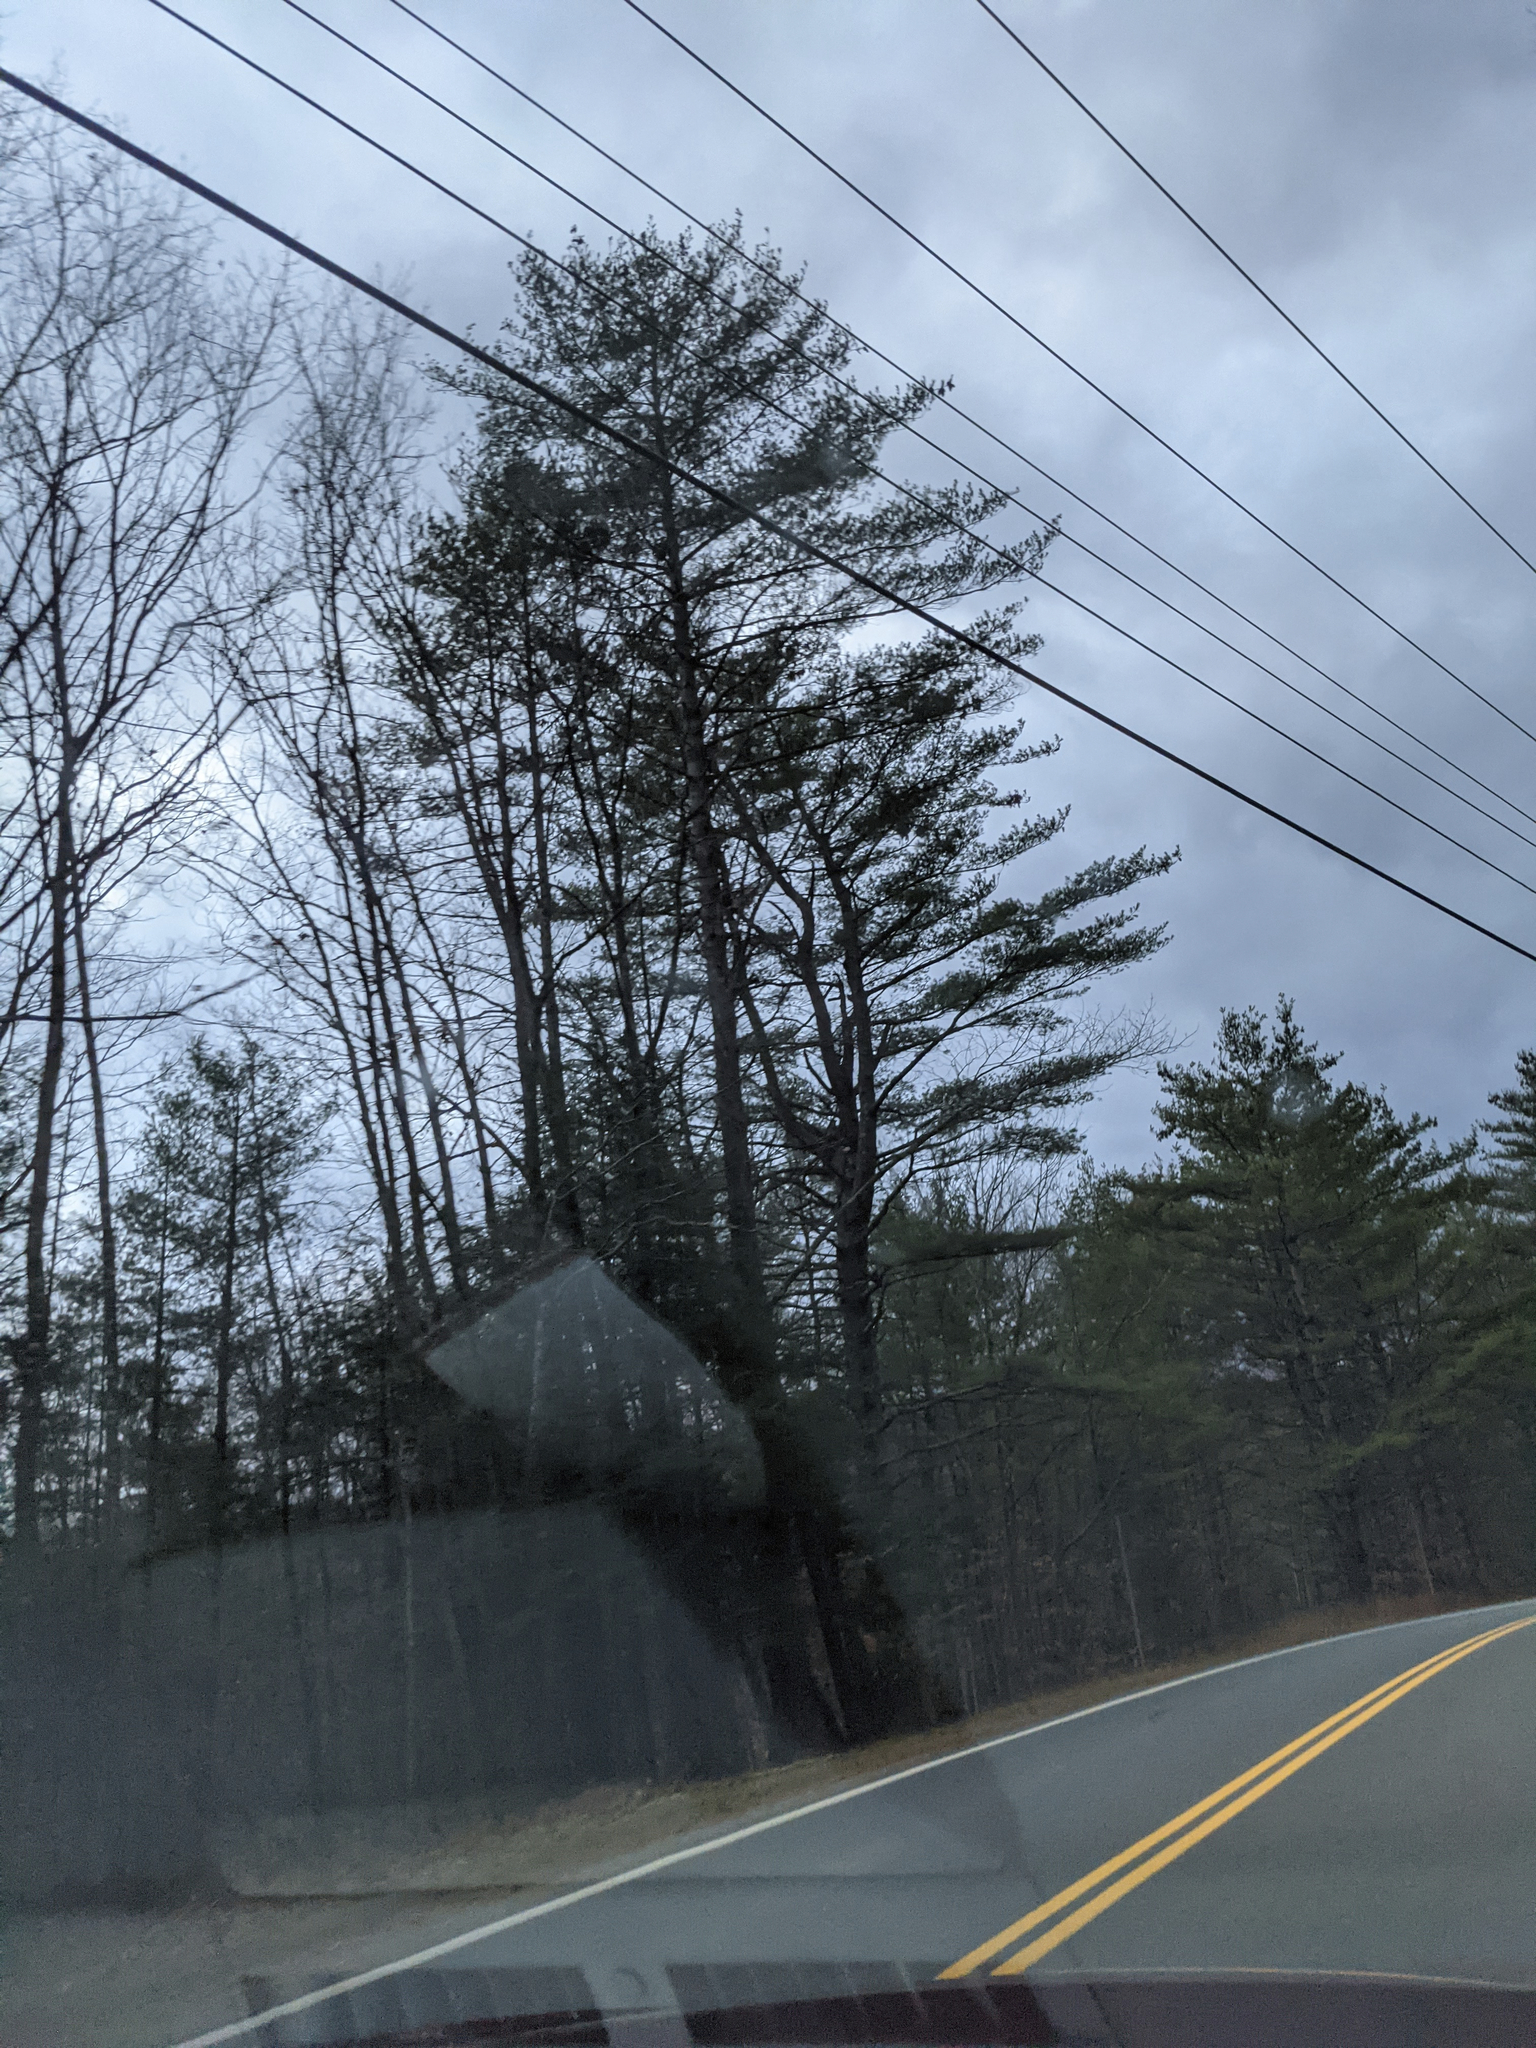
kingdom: Plantae
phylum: Tracheophyta
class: Pinopsida
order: Pinales
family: Pinaceae
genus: Pinus
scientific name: Pinus strobus
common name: Weymouth pine
